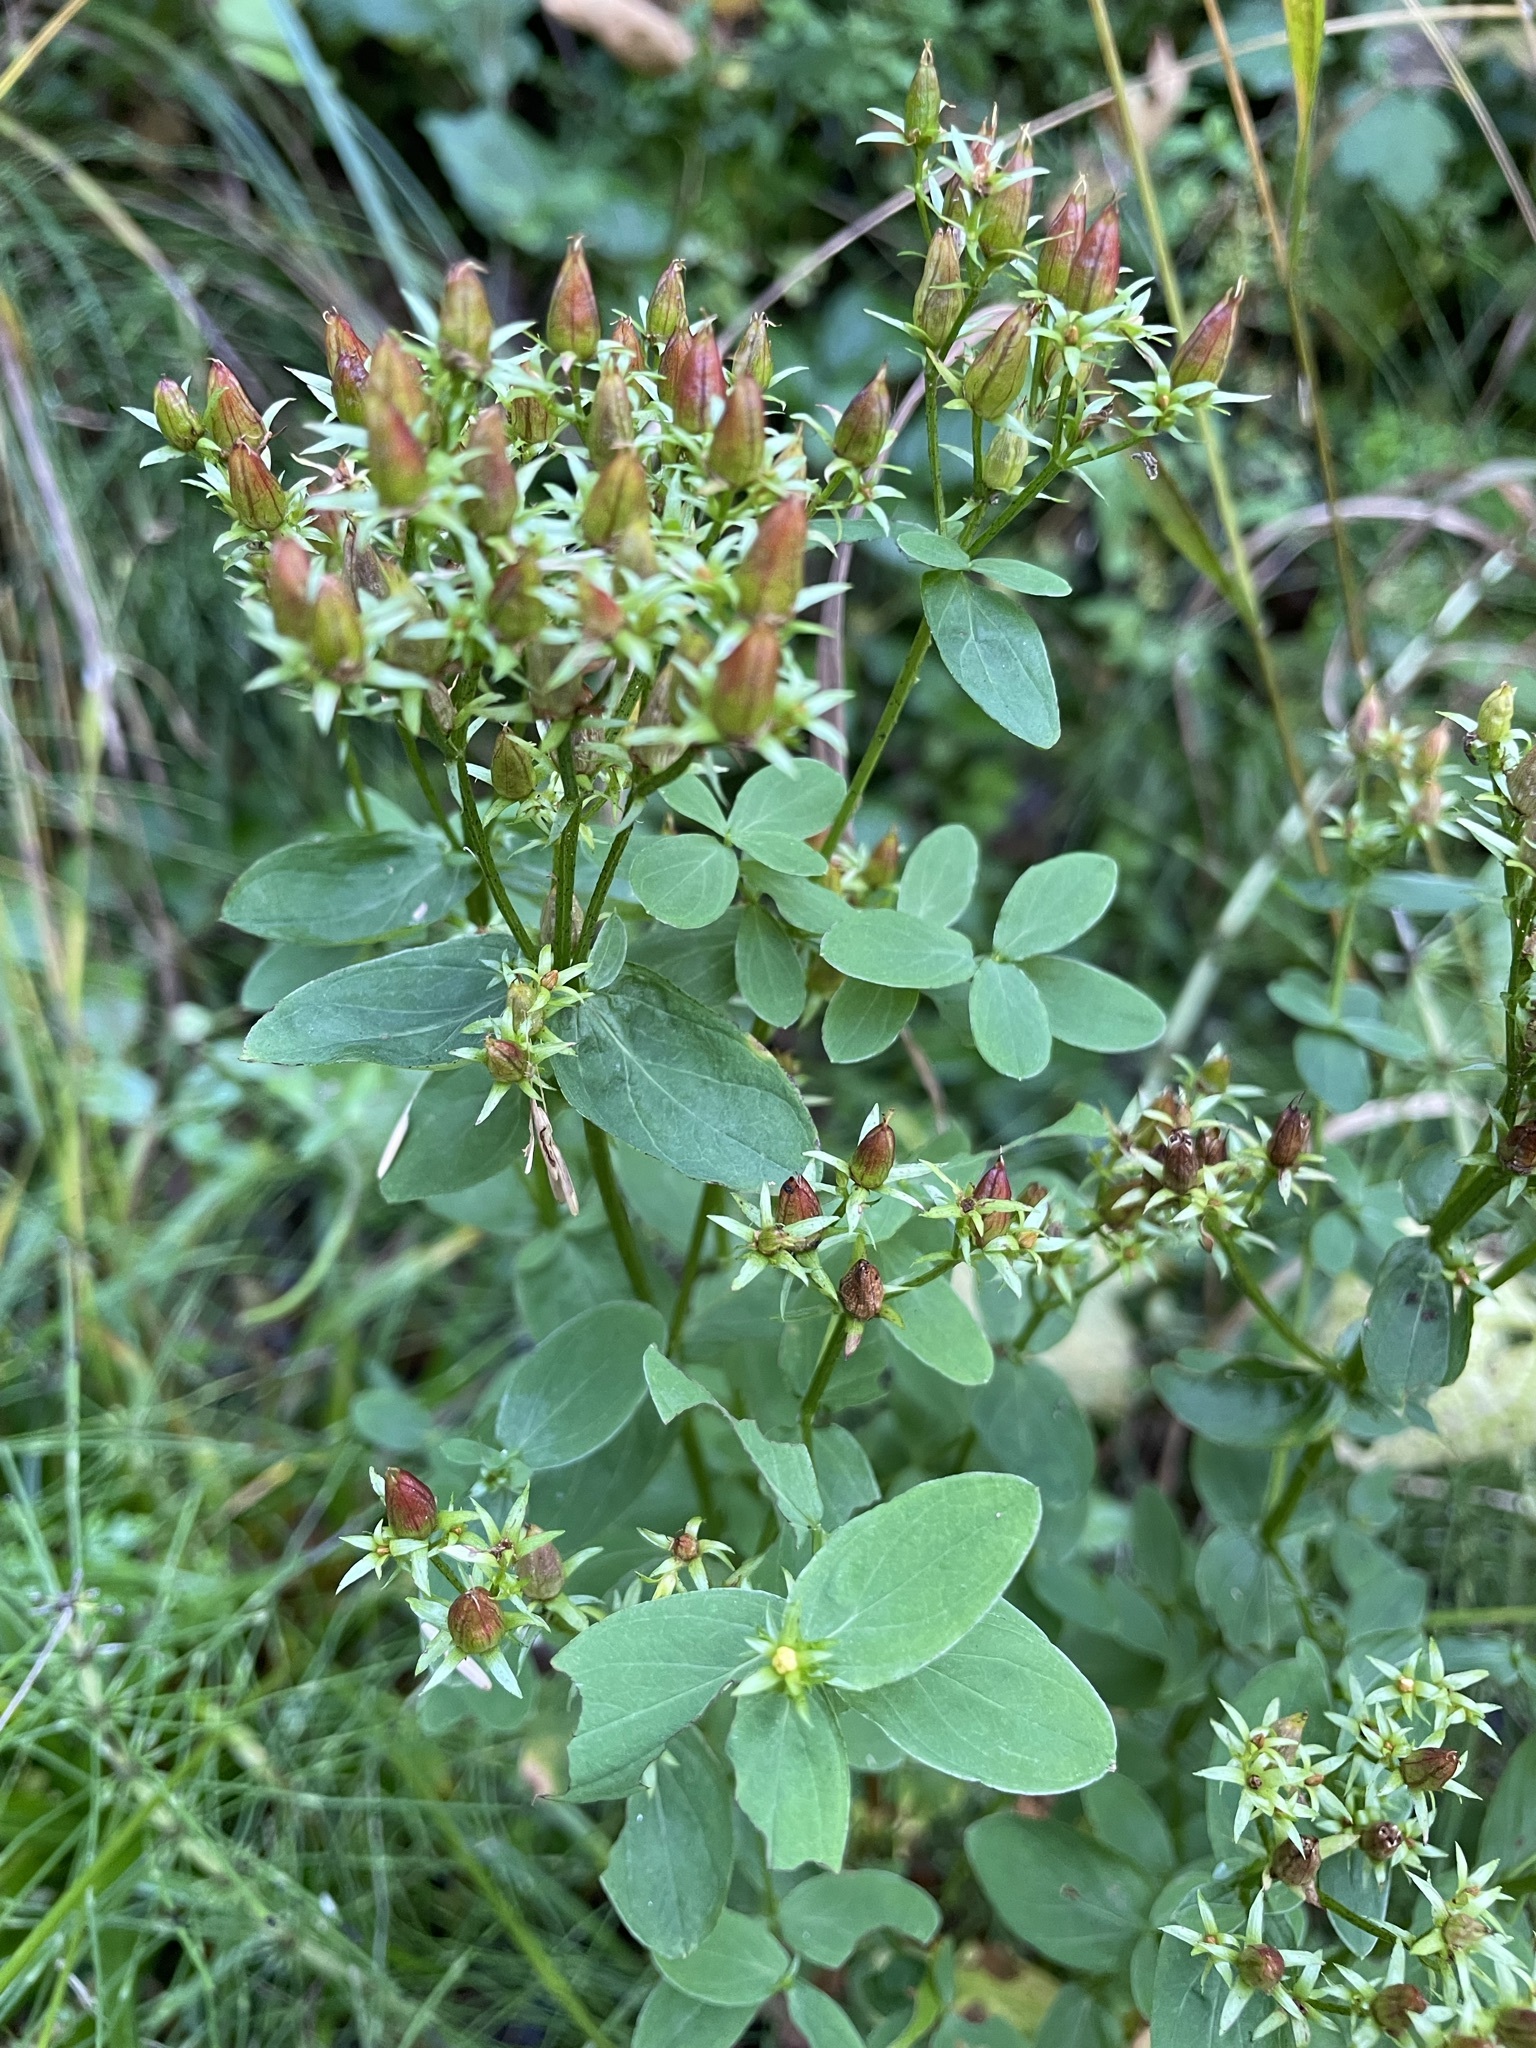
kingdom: Plantae
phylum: Tracheophyta
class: Magnoliopsida
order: Malpighiales
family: Hypericaceae
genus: Hypericum
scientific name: Hypericum tetrapterum
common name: Square-stalked st. john's-wort
